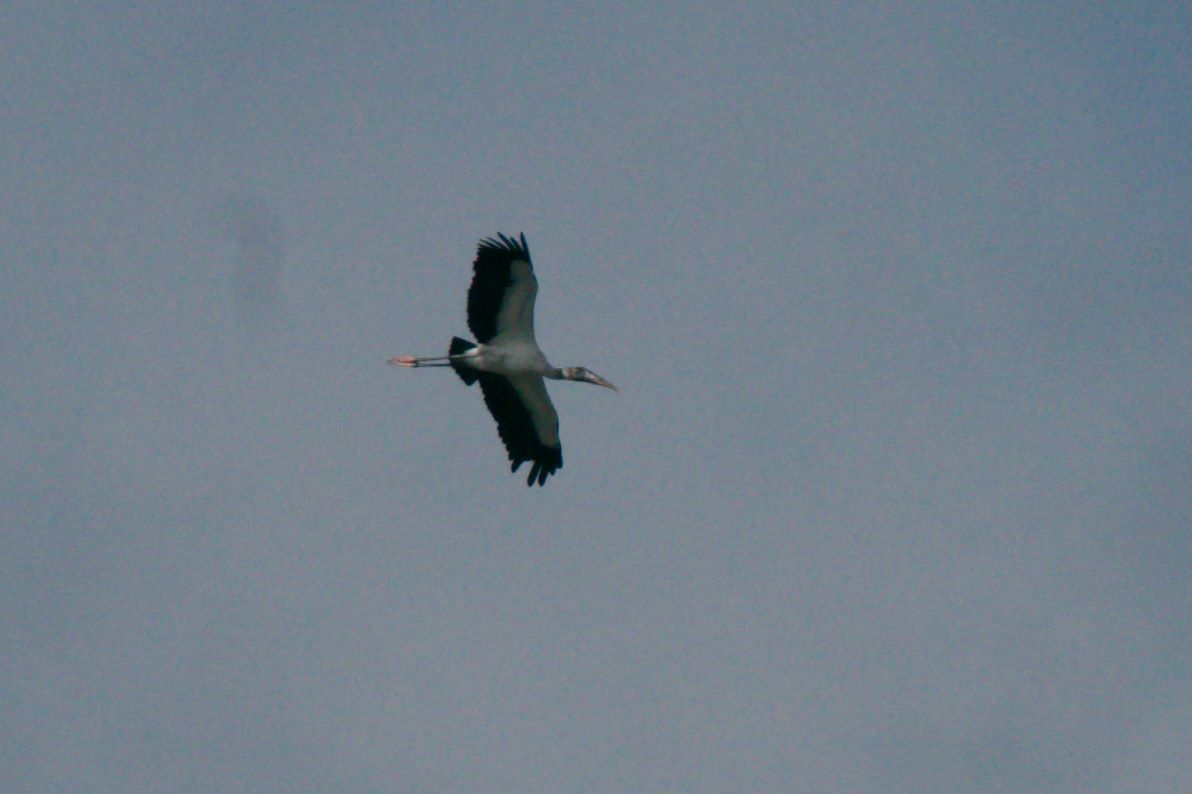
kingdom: Animalia
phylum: Chordata
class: Aves
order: Ciconiiformes
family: Ciconiidae
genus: Mycteria
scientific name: Mycteria americana
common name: Wood stork
